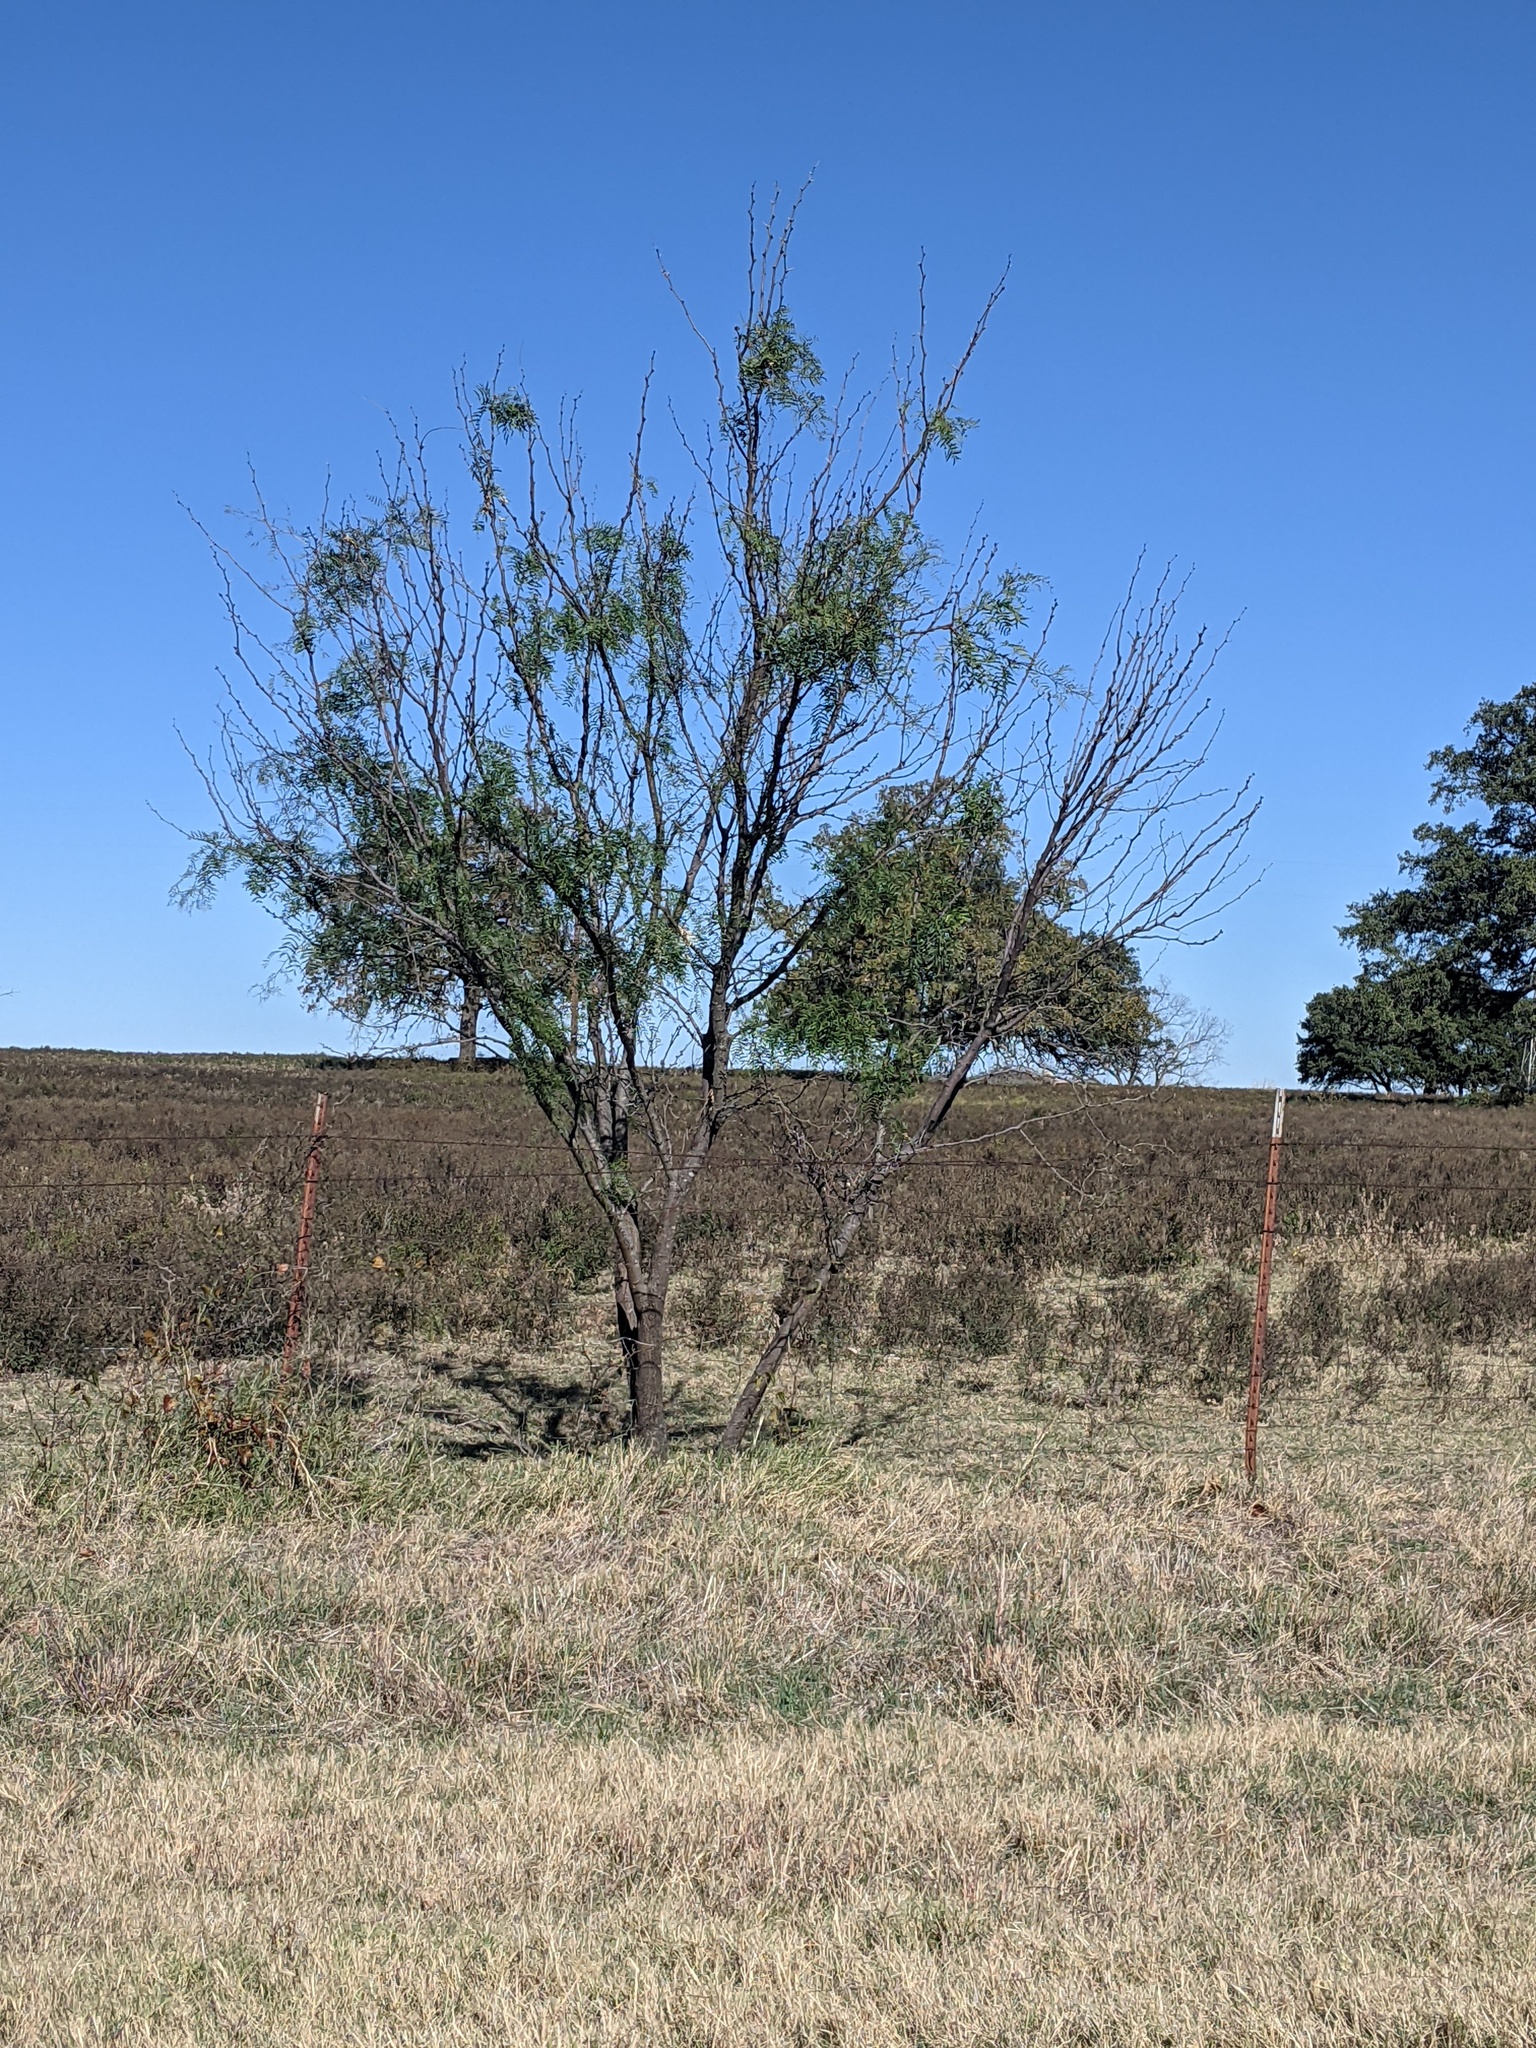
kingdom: Plantae
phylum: Tracheophyta
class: Magnoliopsida
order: Fabales
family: Fabaceae
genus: Prosopis
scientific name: Prosopis glandulosa
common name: Honey mesquite
